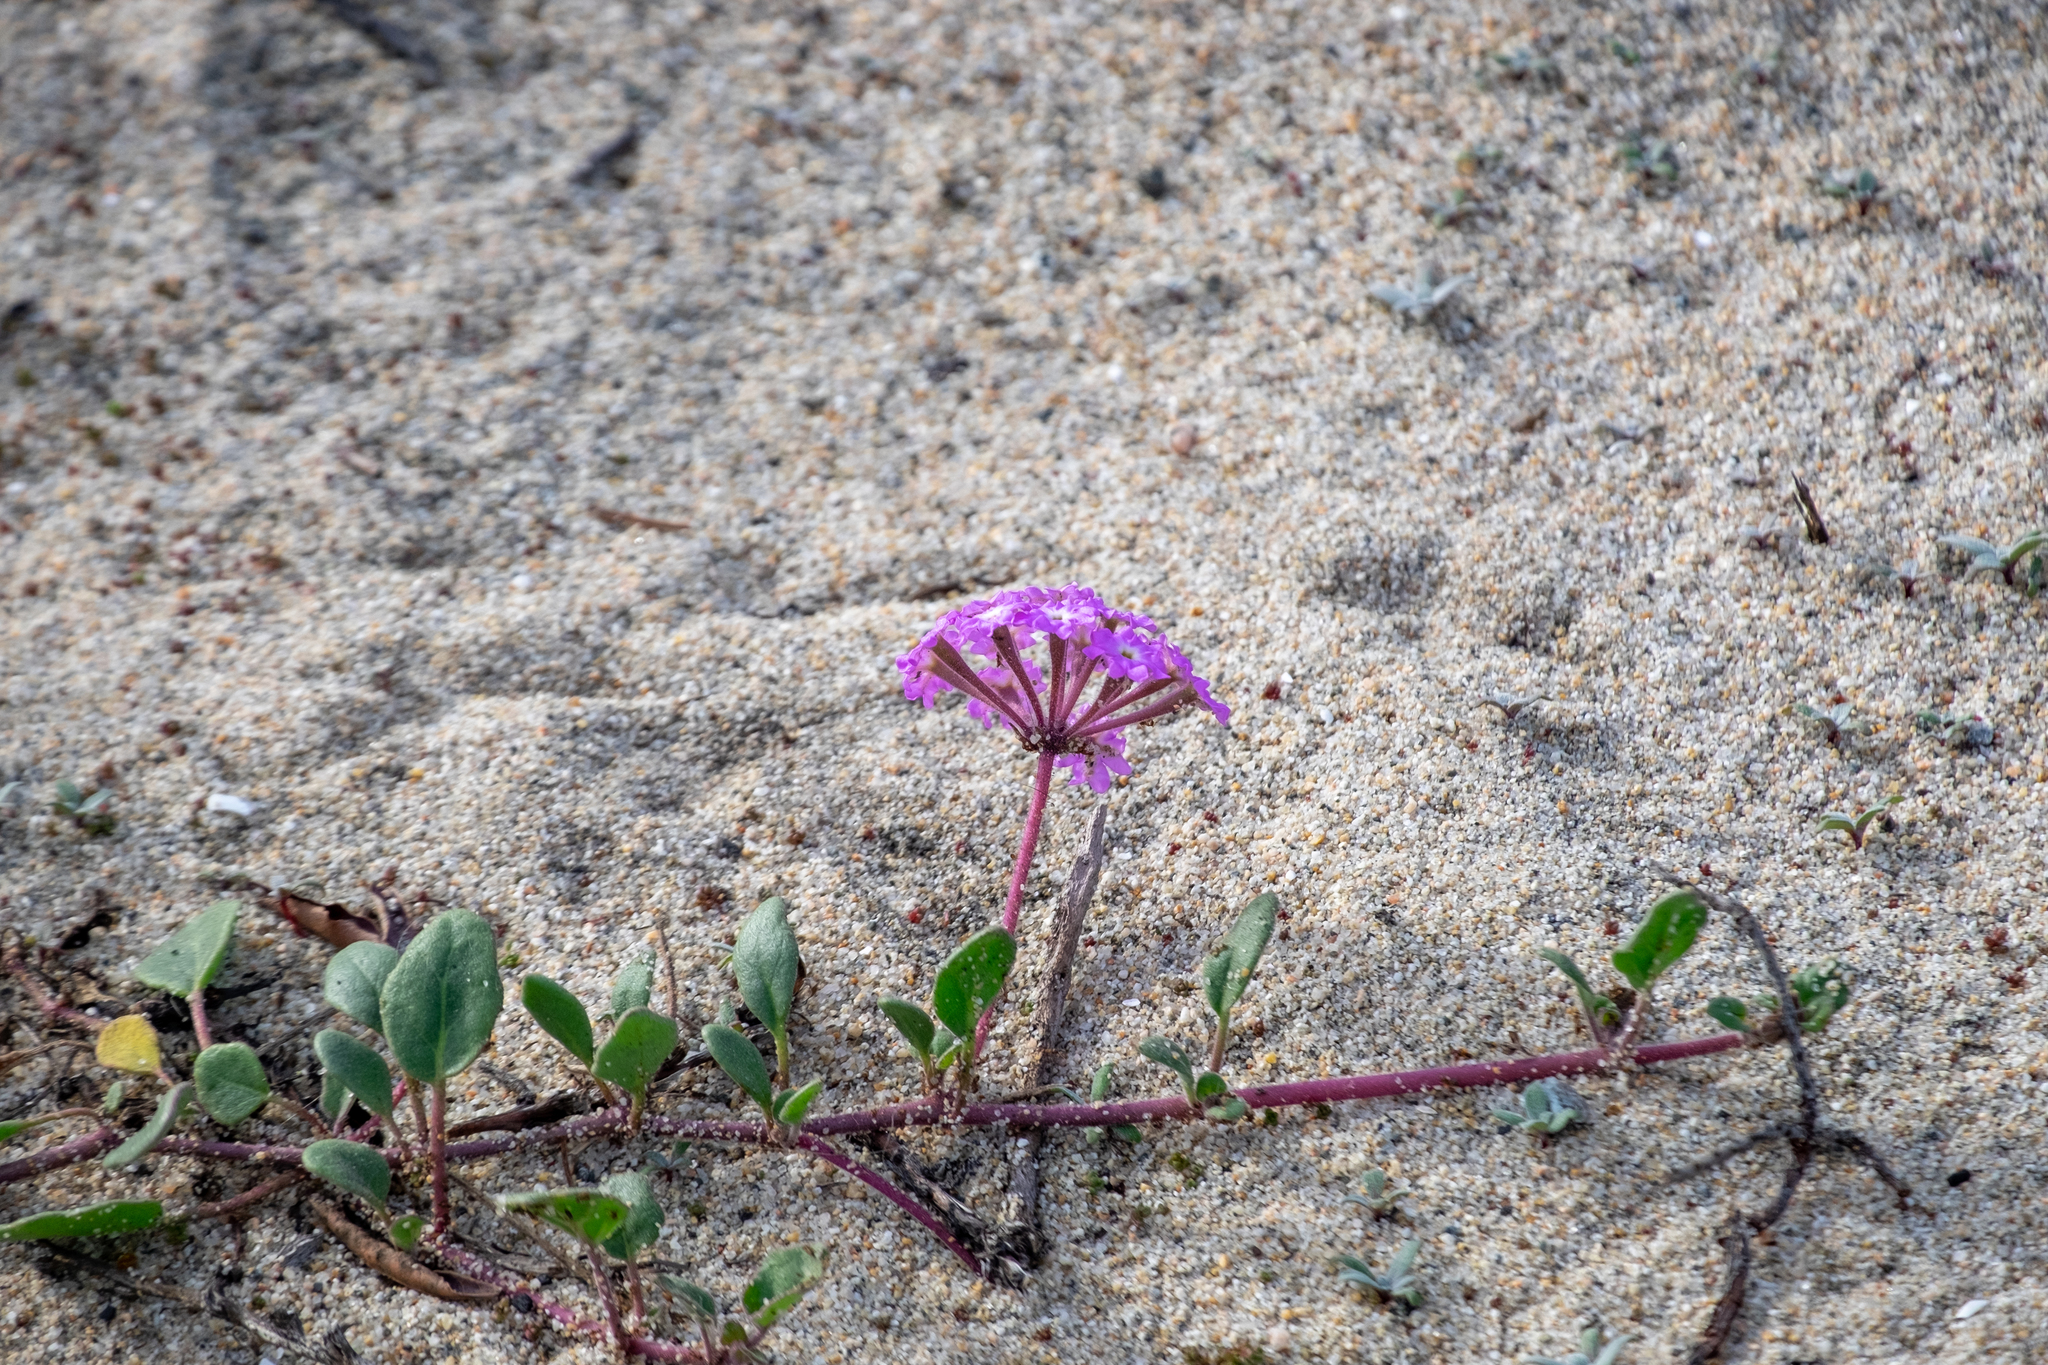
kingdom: Plantae
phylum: Tracheophyta
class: Magnoliopsida
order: Caryophyllales
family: Nyctaginaceae
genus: Abronia
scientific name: Abronia umbellata
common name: Sand-verbena
